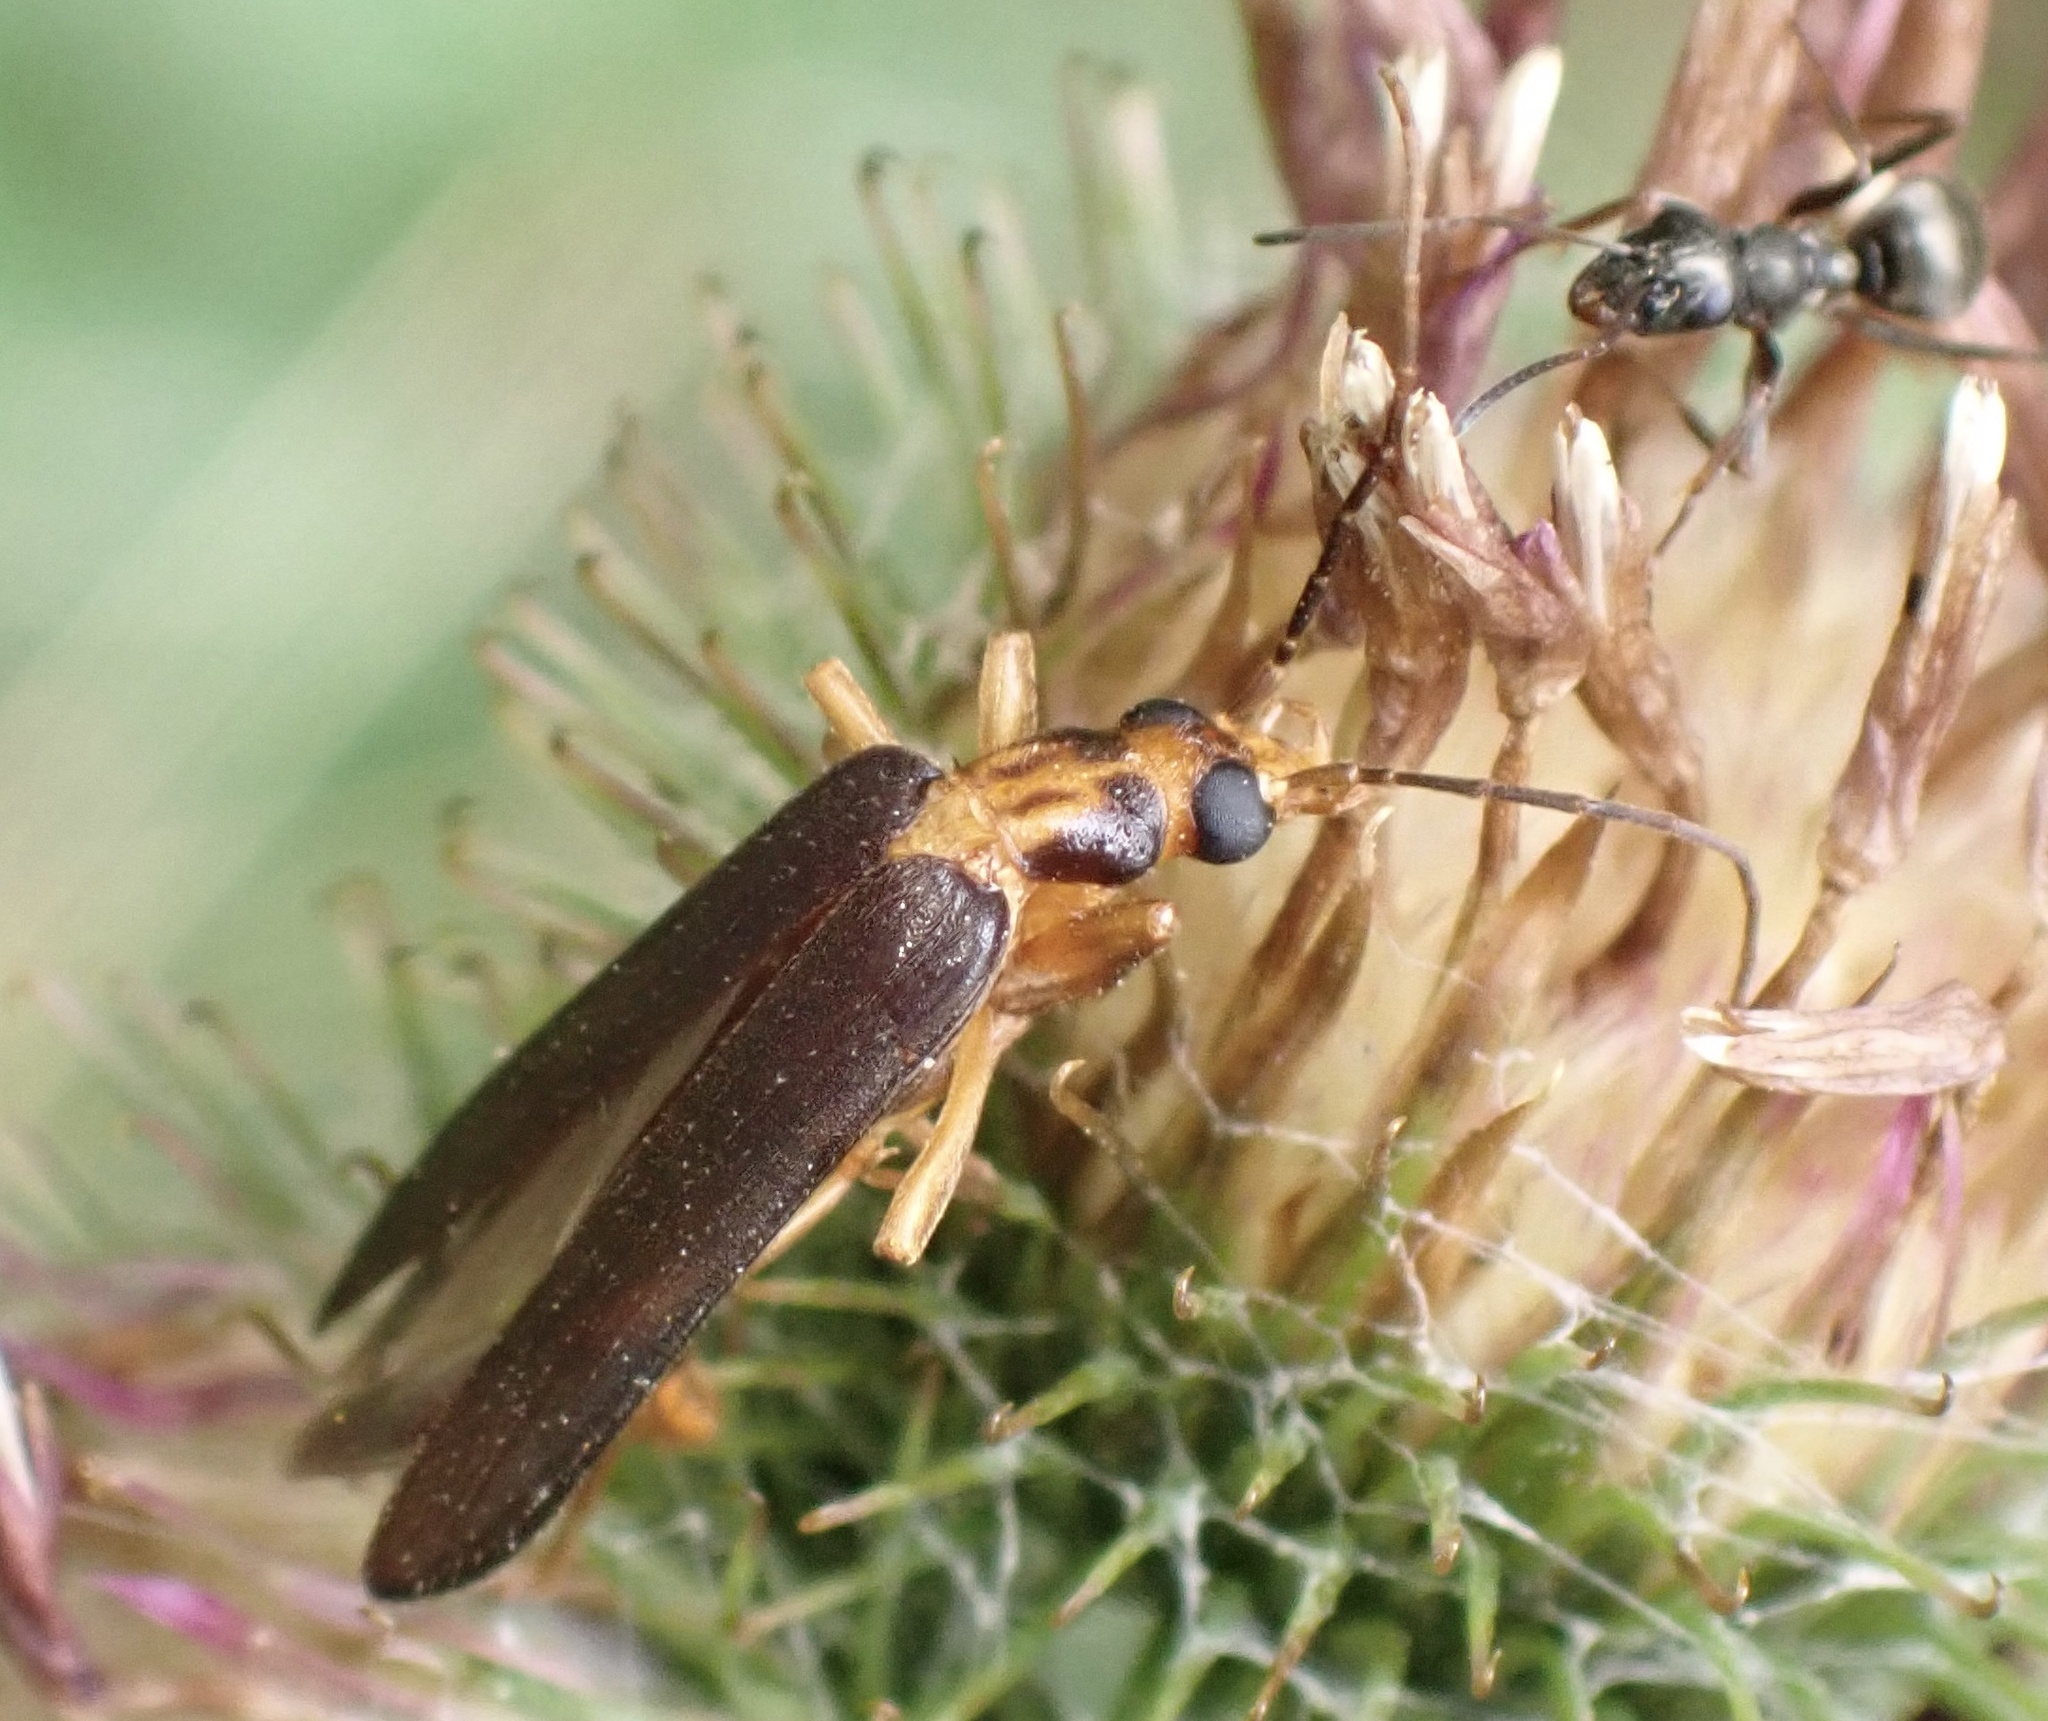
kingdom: Animalia
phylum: Arthropoda
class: Insecta
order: Coleoptera
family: Oedemeridae
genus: Nacerdes
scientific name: Nacerdes carniolica
